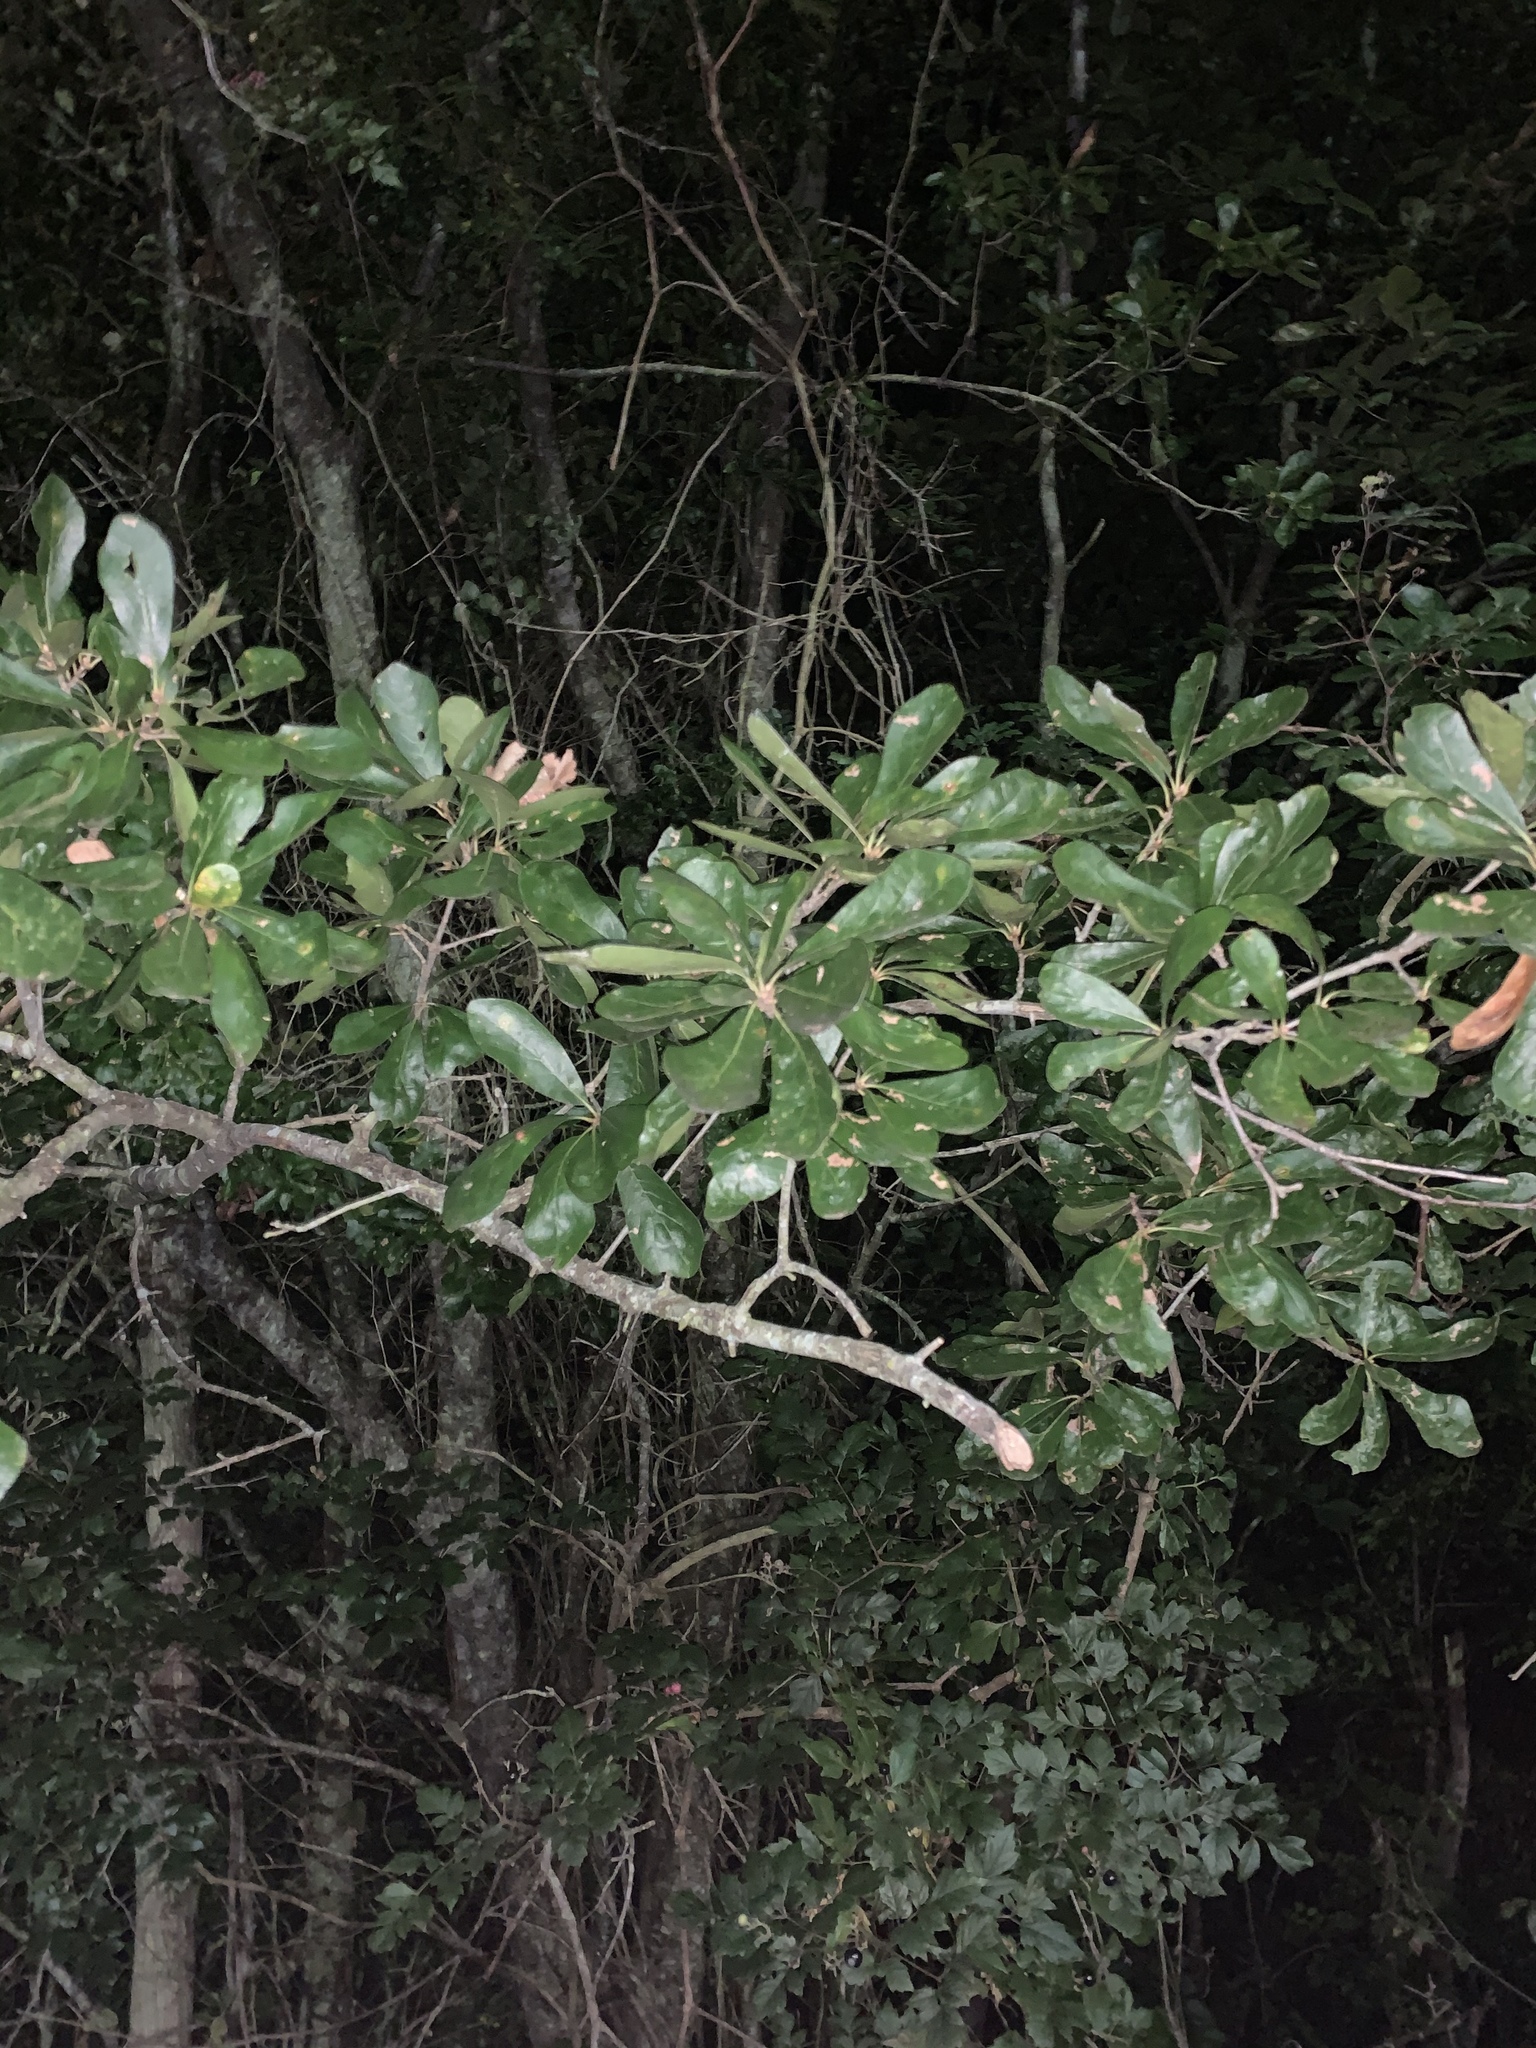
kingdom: Plantae
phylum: Tracheophyta
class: Magnoliopsida
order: Fagales
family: Fagaceae
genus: Quercus
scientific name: Quercus nigra
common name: Water oak
